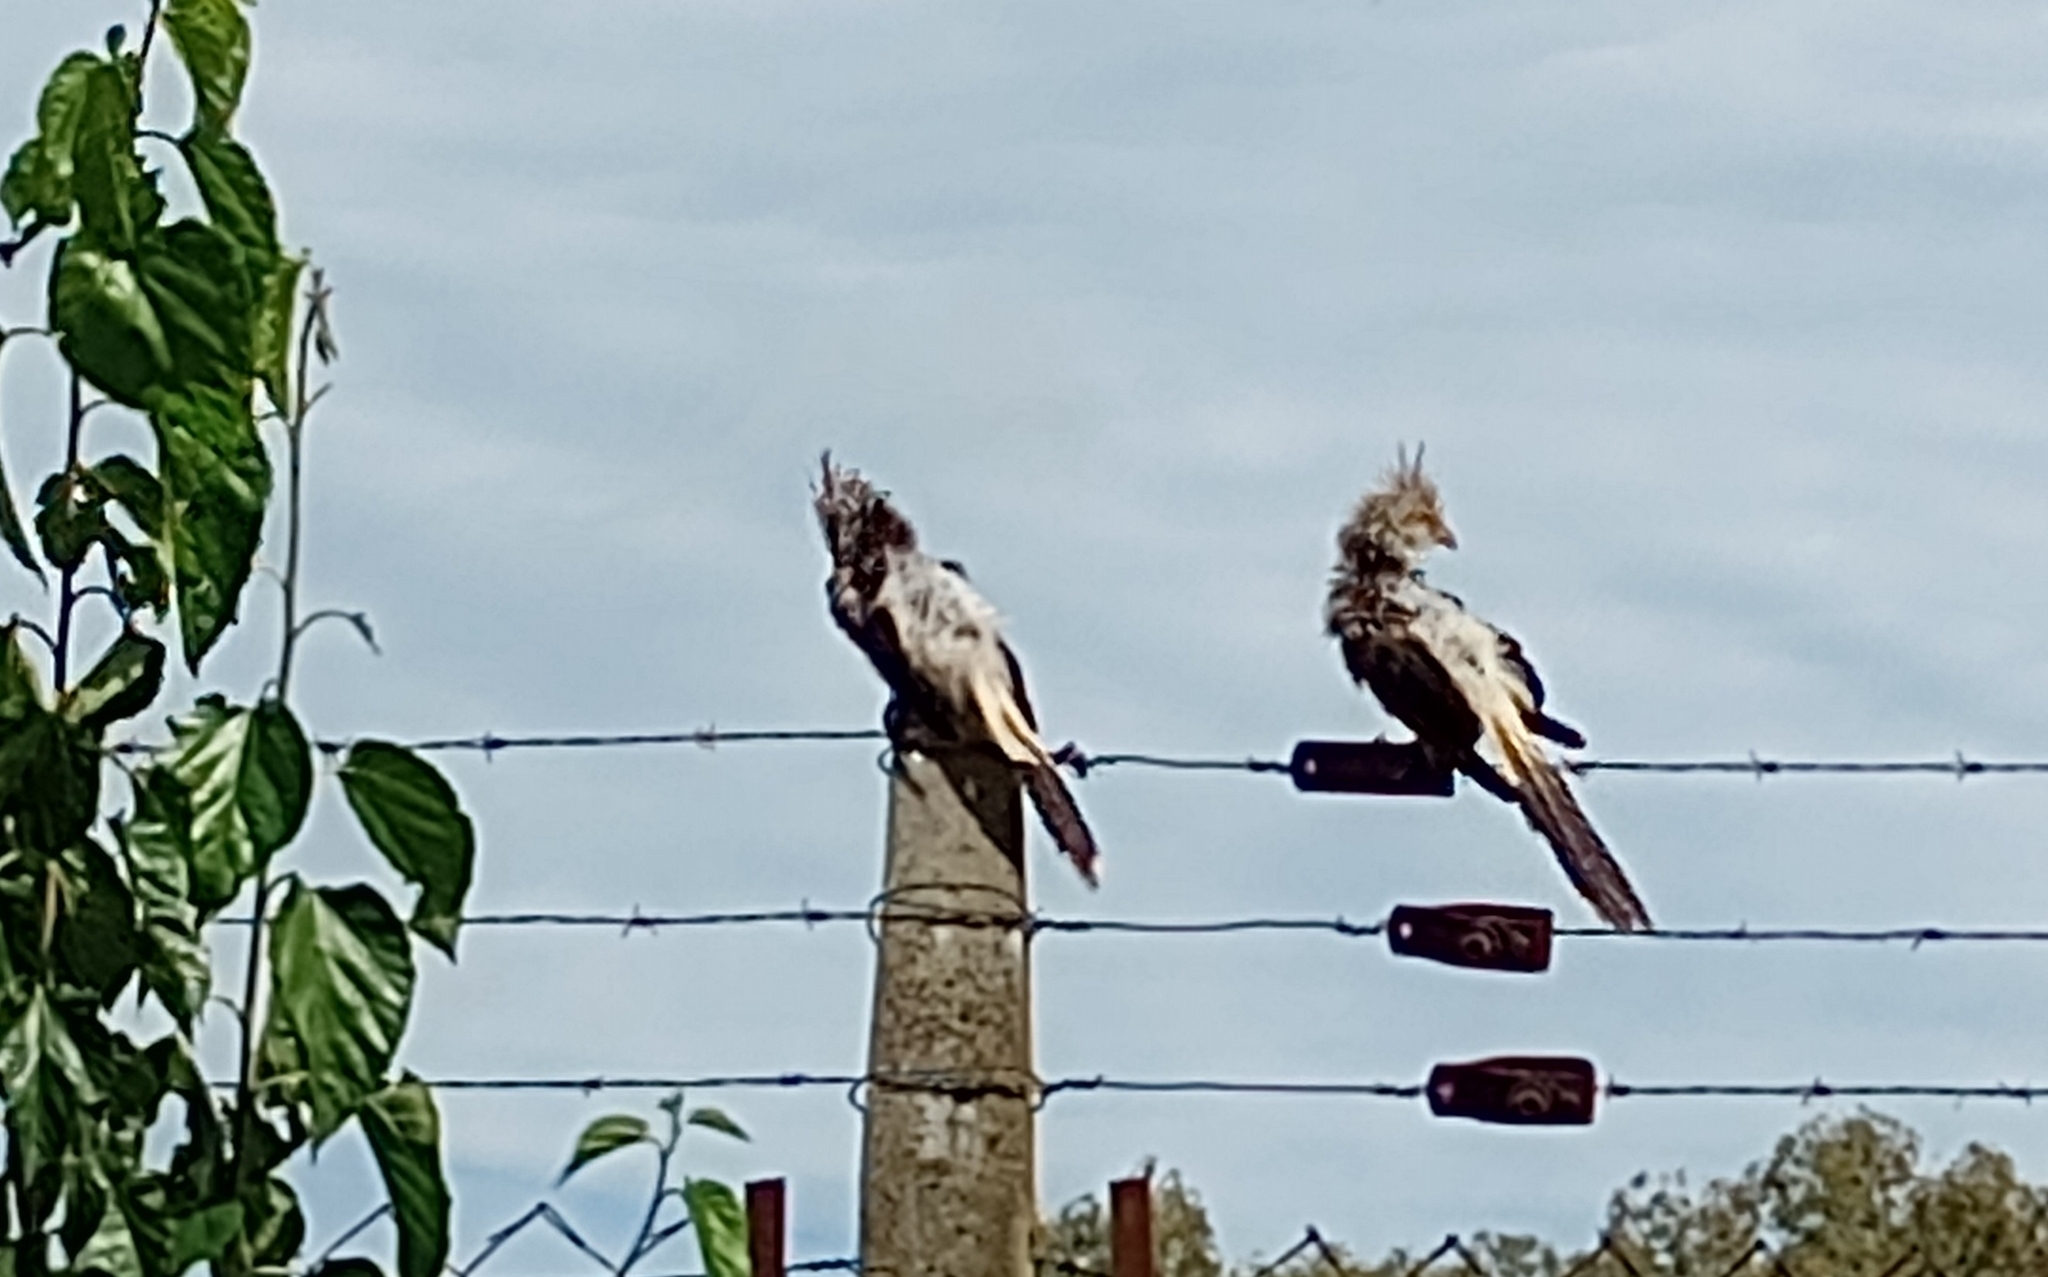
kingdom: Animalia
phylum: Chordata
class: Aves
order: Cuculiformes
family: Cuculidae
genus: Guira
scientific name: Guira guira
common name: Guira cuckoo
